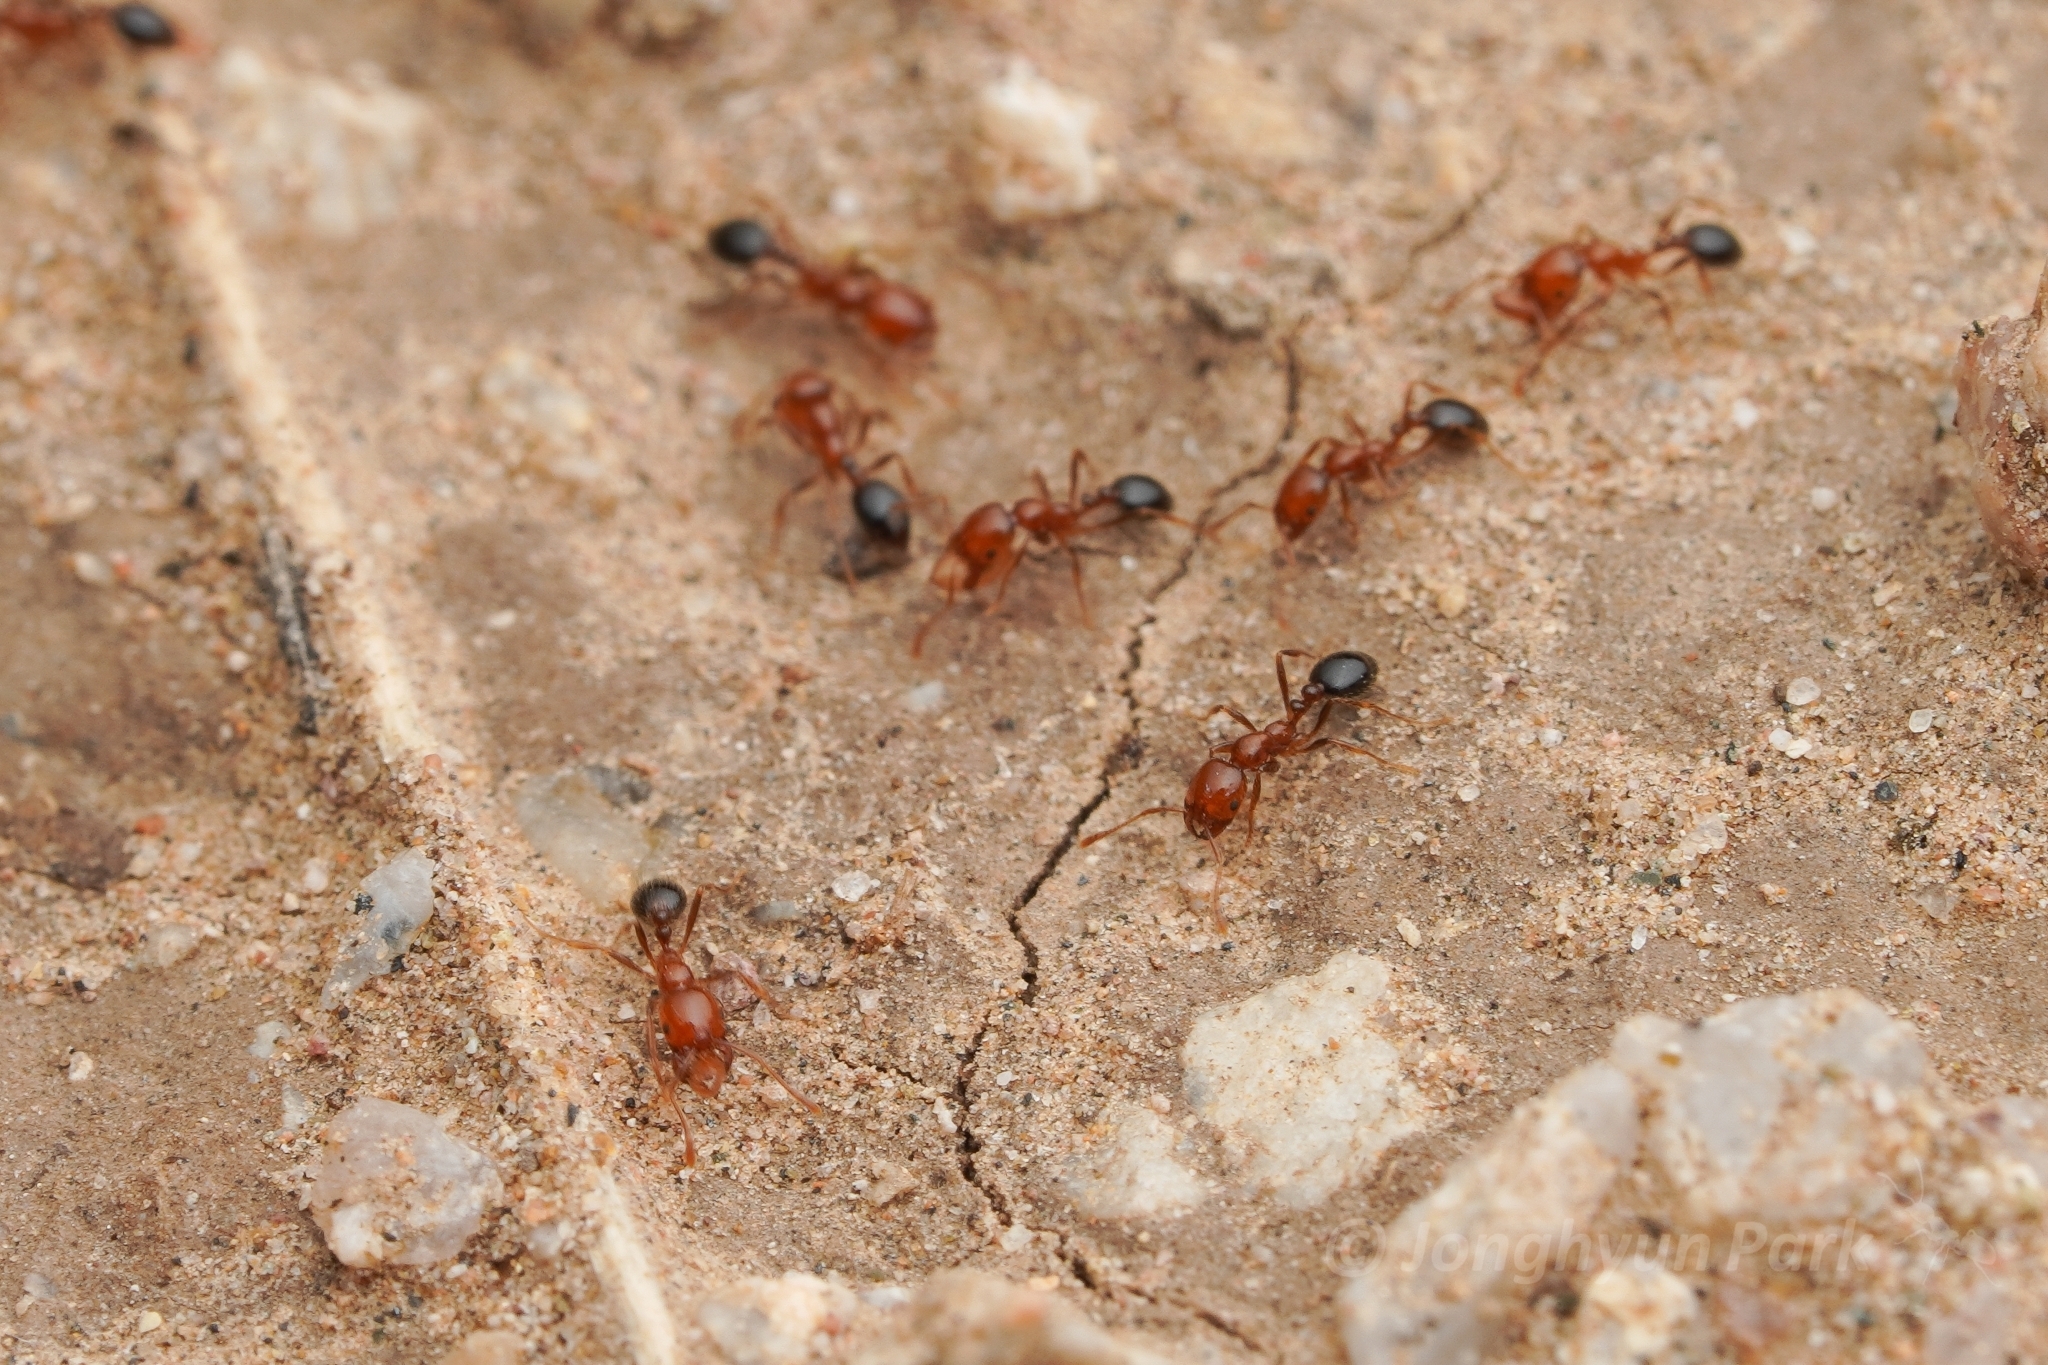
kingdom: Animalia
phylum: Arthropoda
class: Insecta
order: Hymenoptera
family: Formicidae
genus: Solenopsis
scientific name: Solenopsis xyloni
